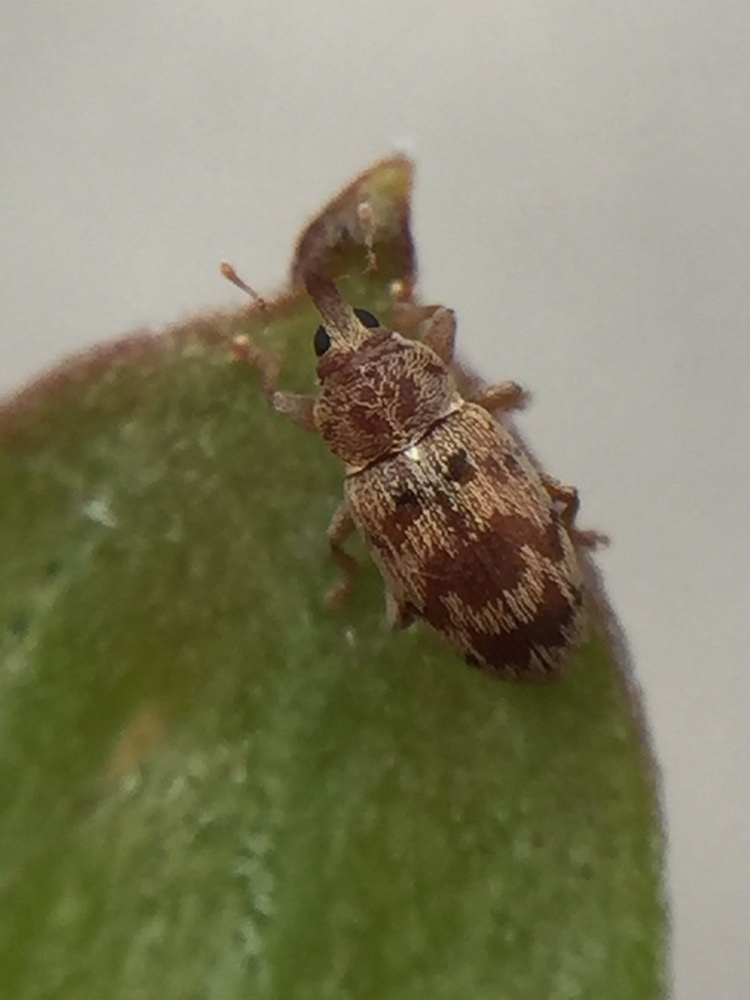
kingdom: Animalia
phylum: Arthropoda
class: Insecta
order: Coleoptera
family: Curculionidae
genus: Epamoebus
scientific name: Epamoebus ziczac
